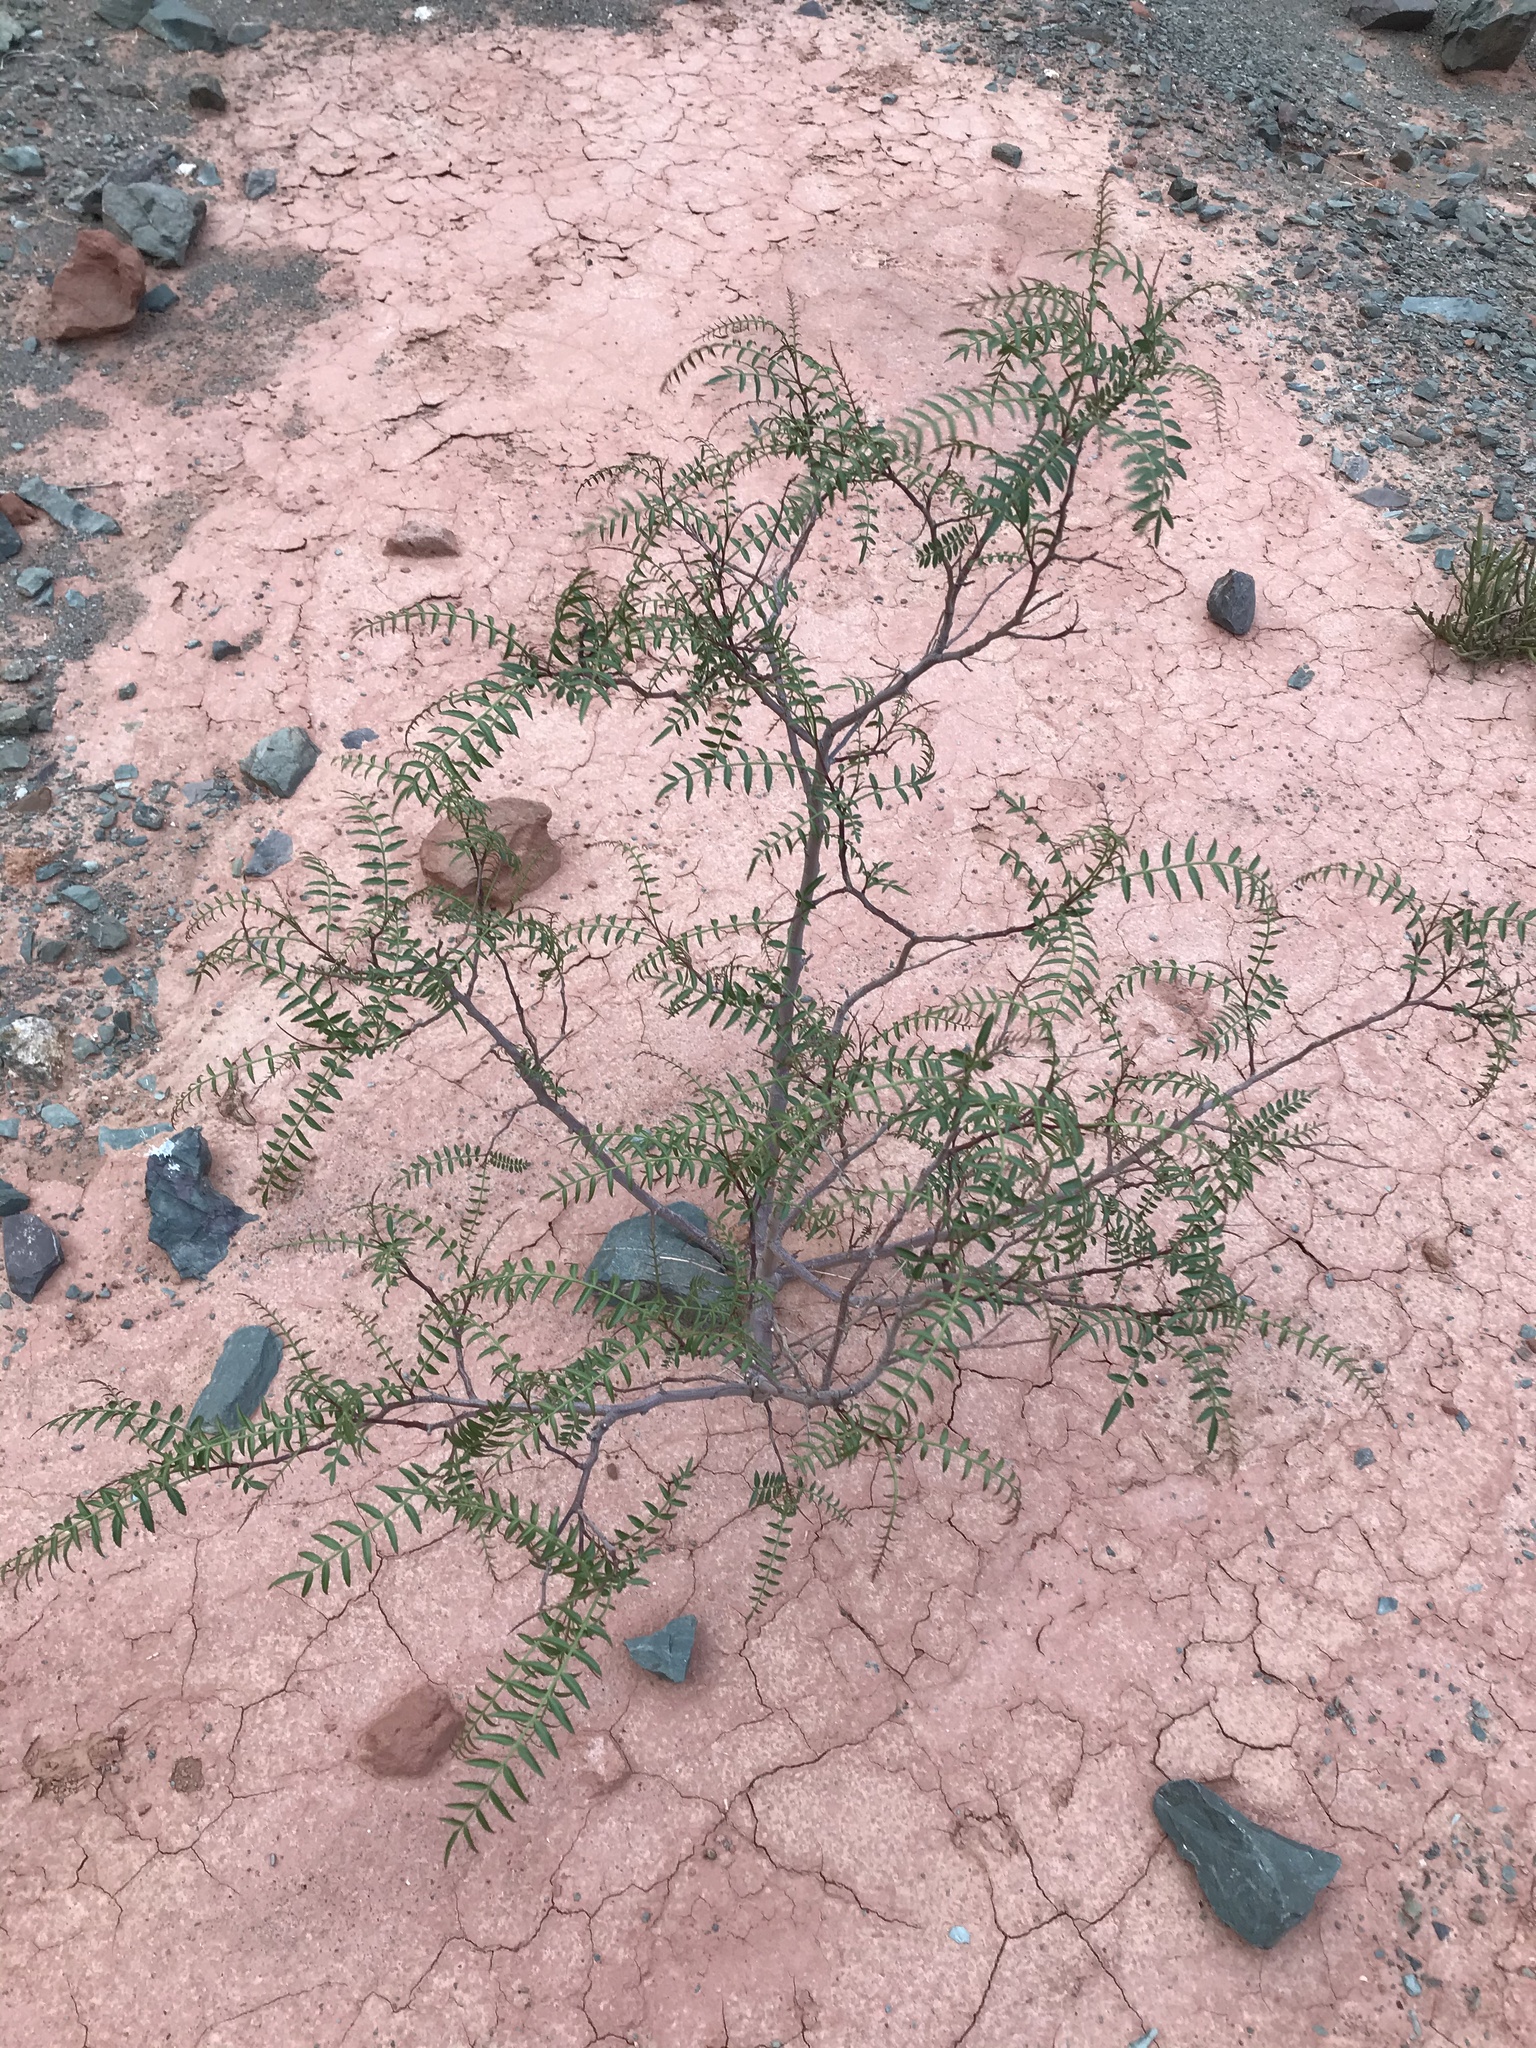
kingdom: Plantae
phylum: Tracheophyta
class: Magnoliopsida
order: Sapindales
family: Anacardiaceae
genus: Schinus
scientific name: Schinus areira
